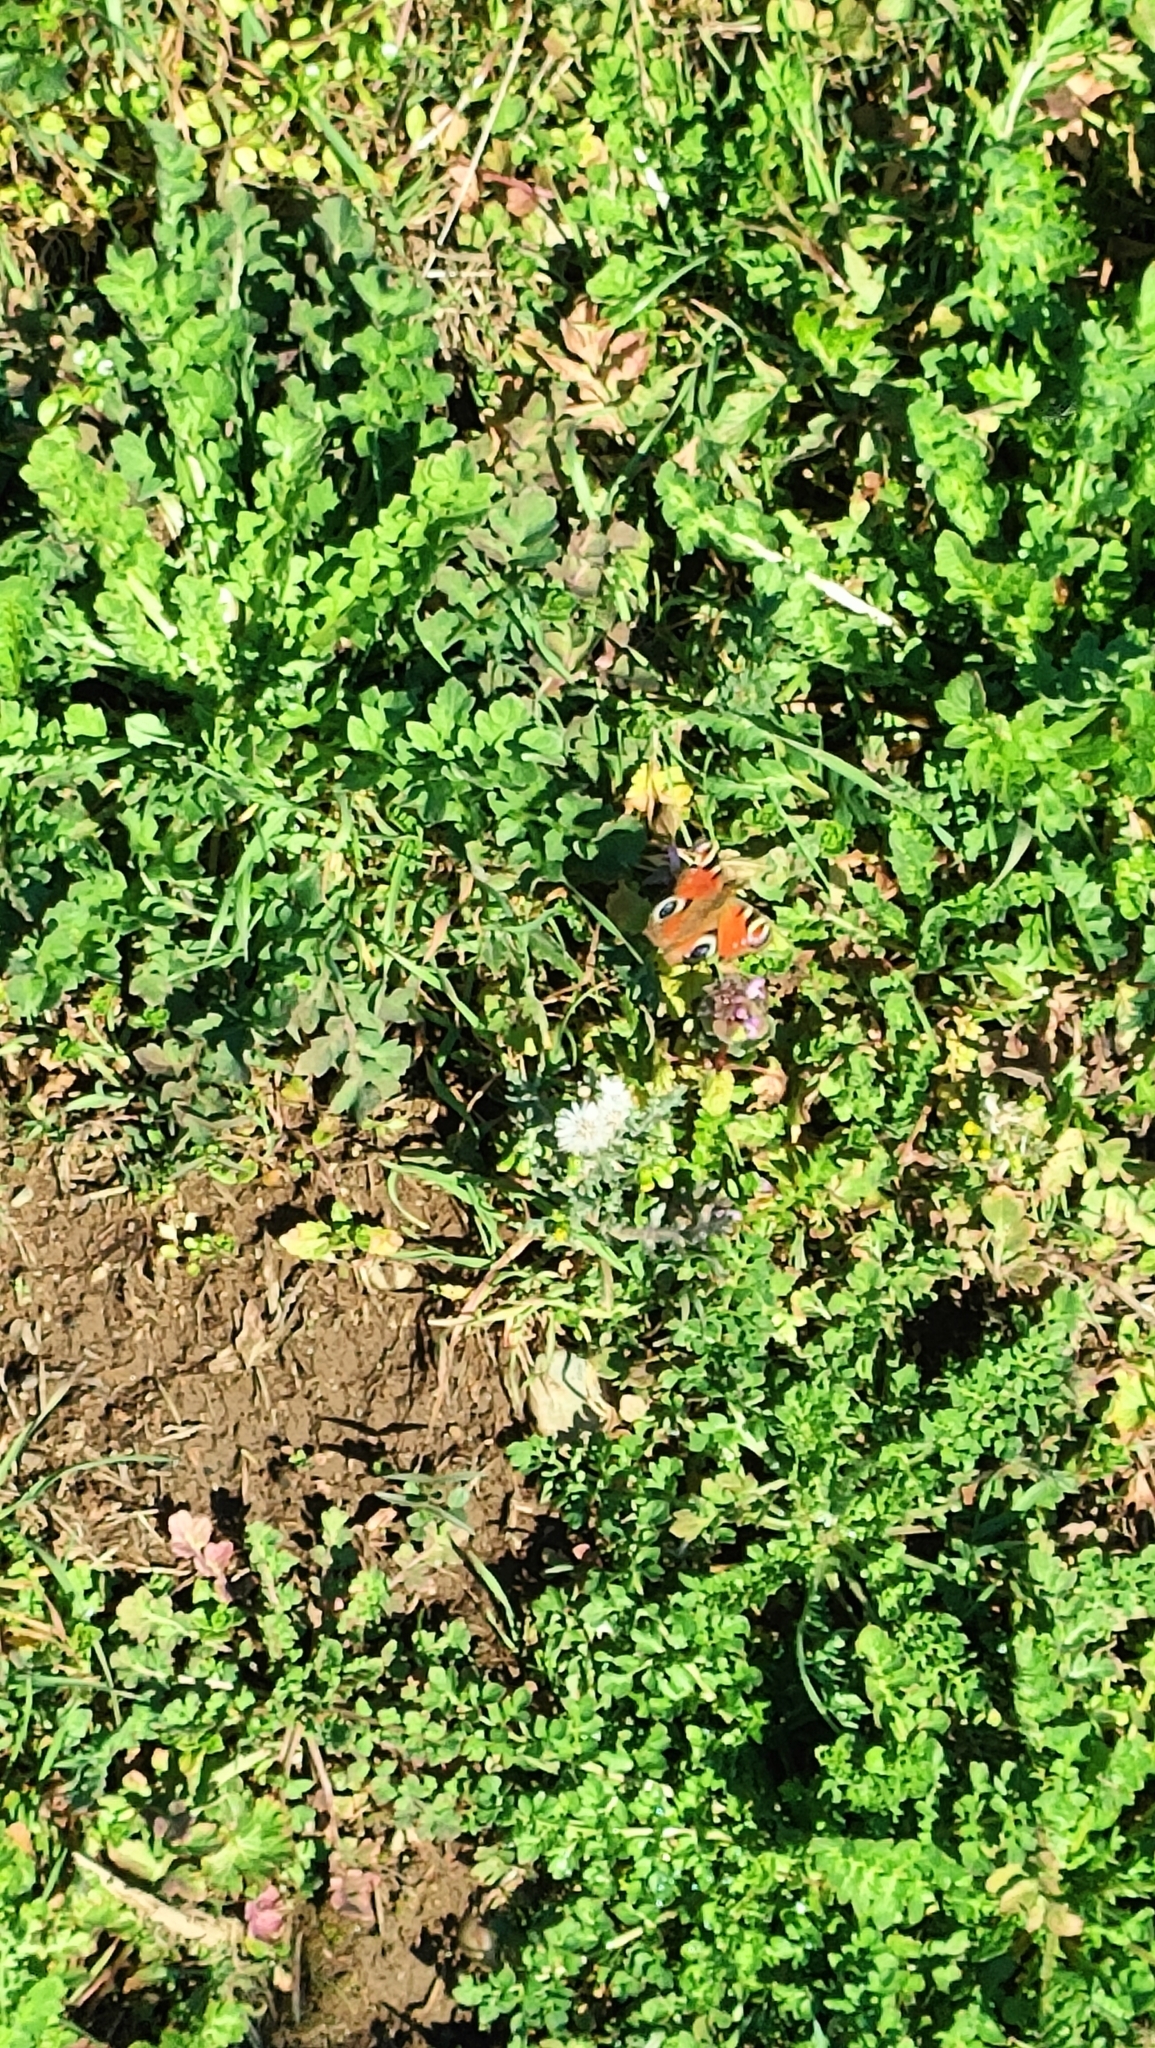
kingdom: Animalia
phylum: Arthropoda
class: Insecta
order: Lepidoptera
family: Nymphalidae
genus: Aglais
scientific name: Aglais io
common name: Peacock
